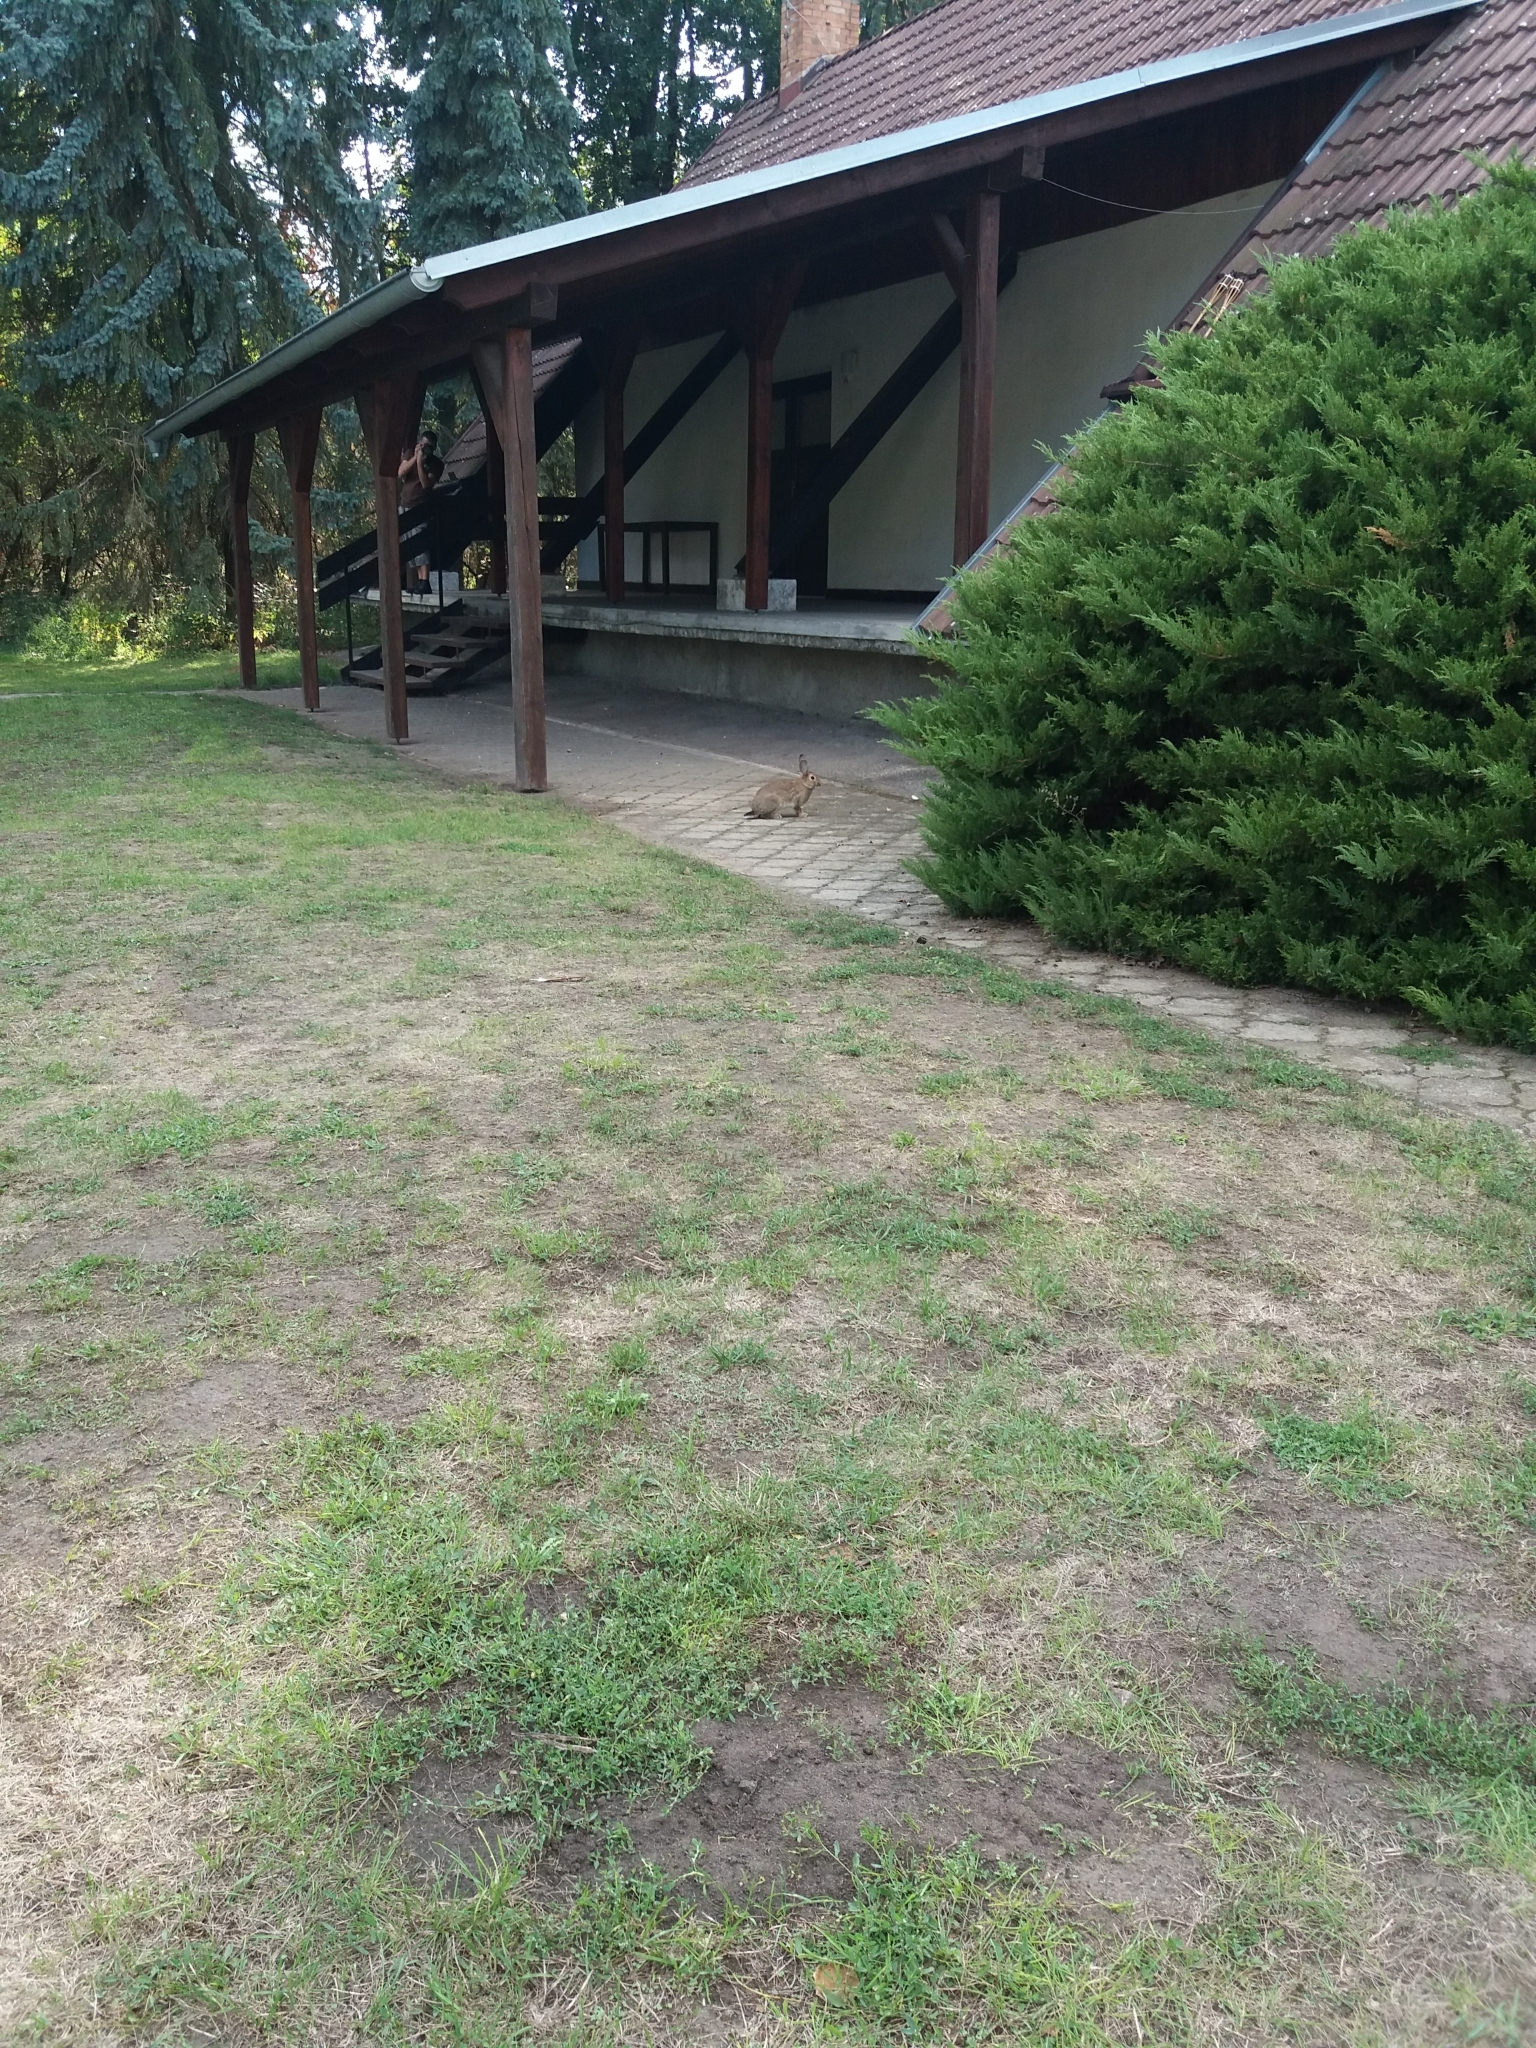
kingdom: Animalia
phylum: Chordata
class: Mammalia
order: Lagomorpha
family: Leporidae
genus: Oryctolagus
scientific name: Oryctolagus cuniculus
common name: European rabbit
